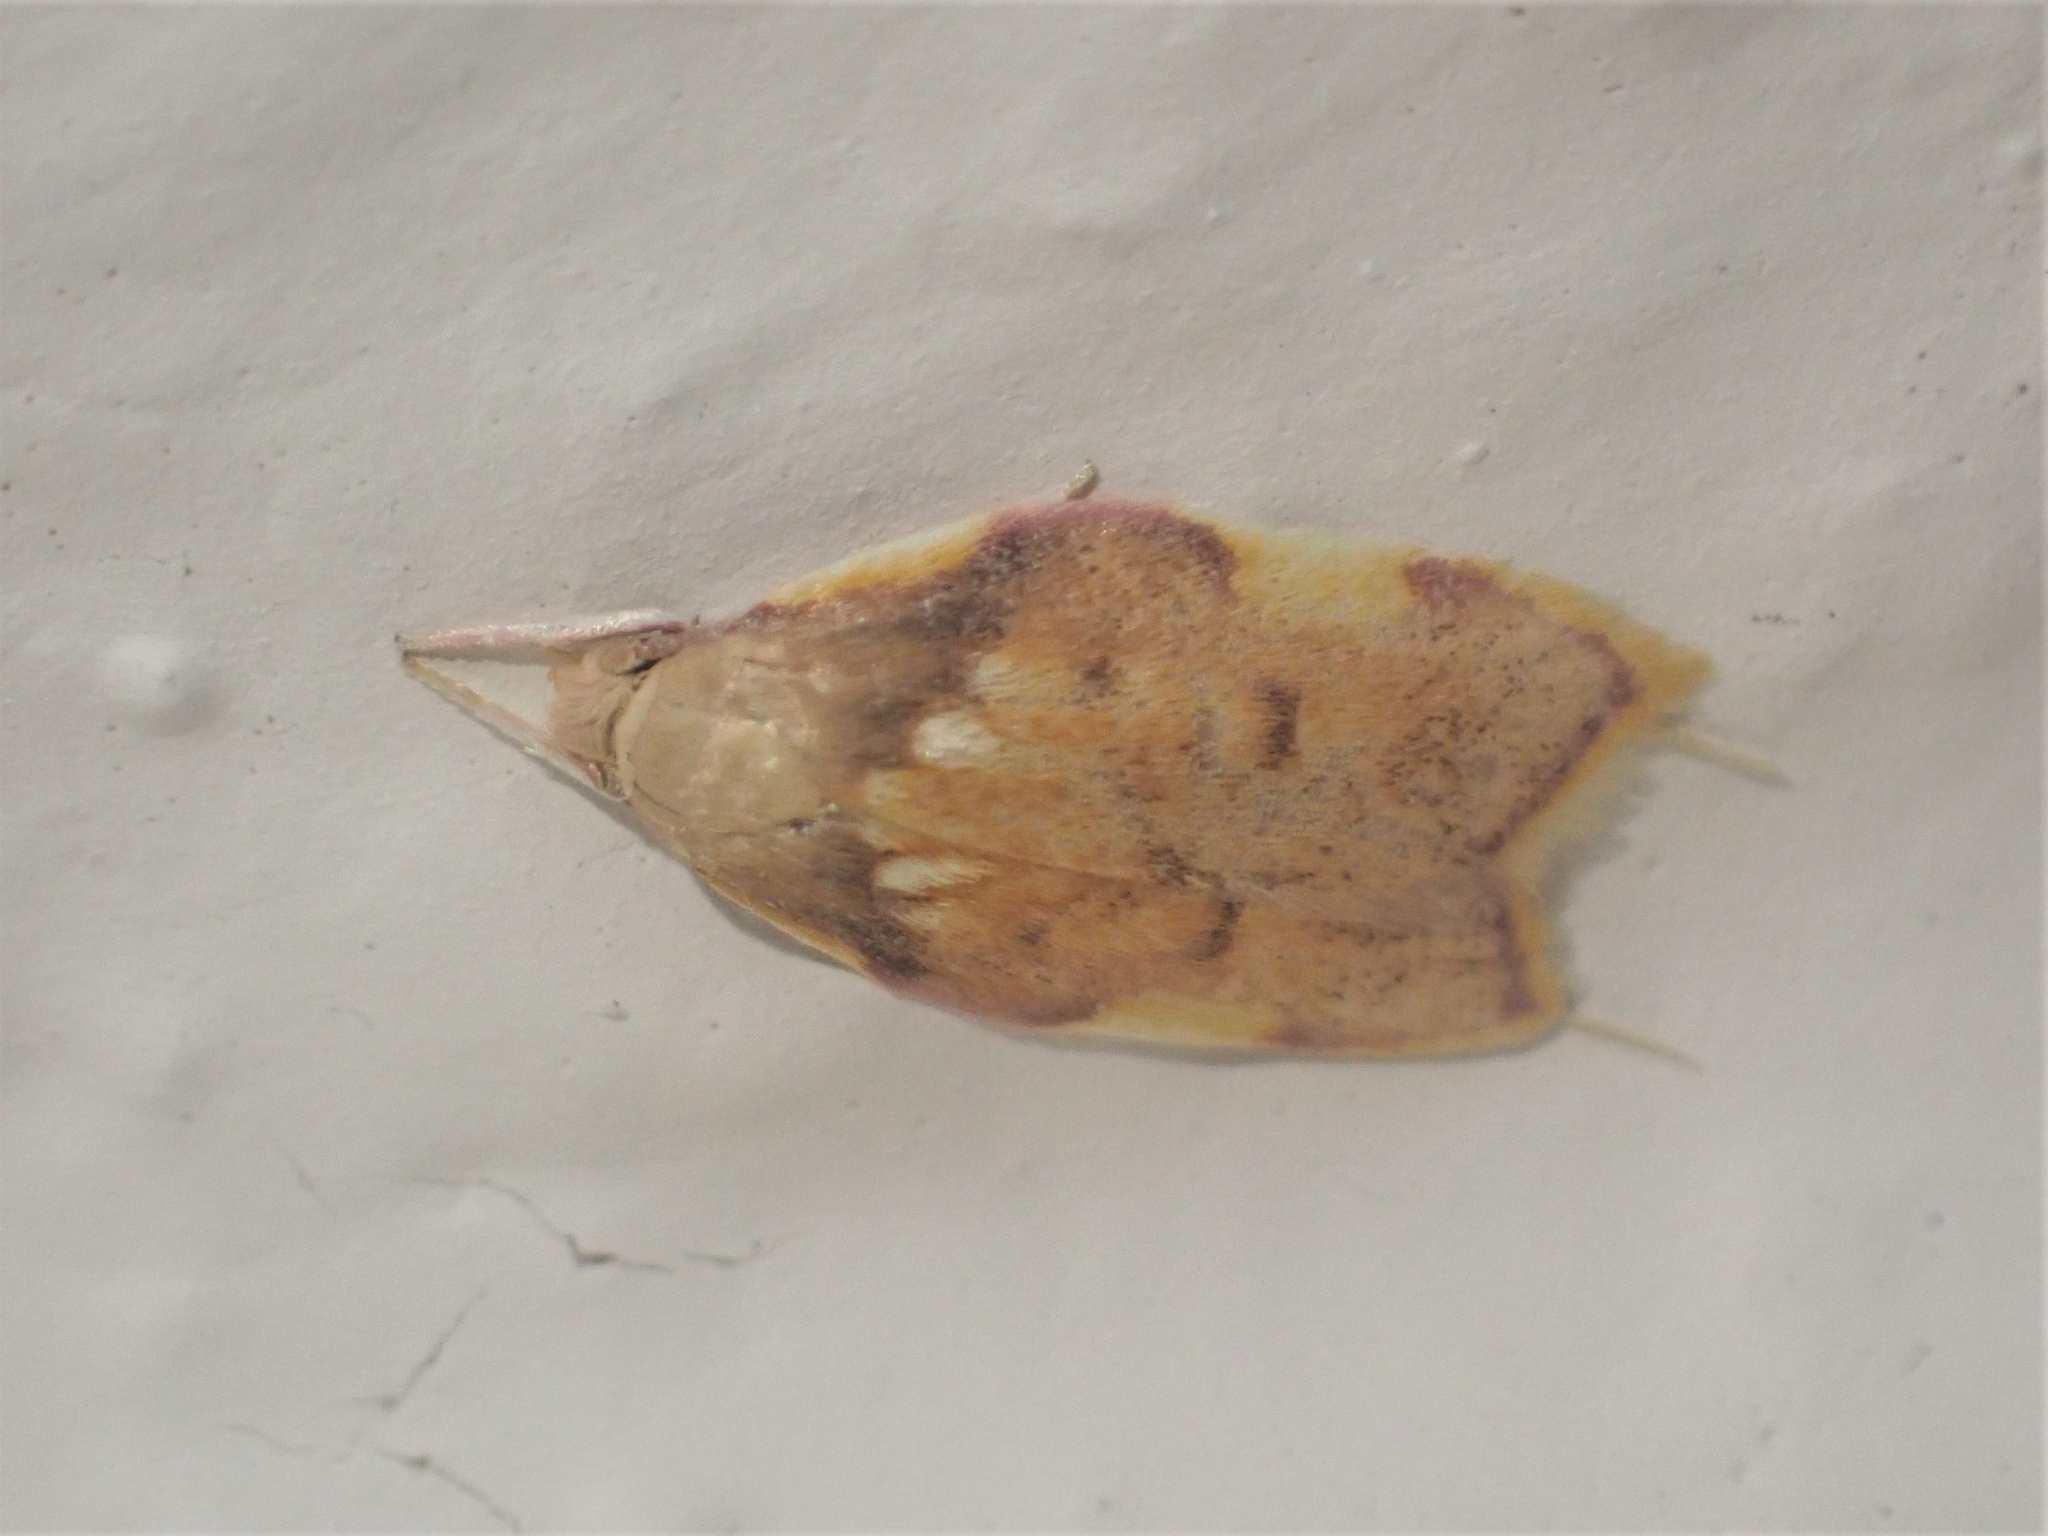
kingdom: Animalia
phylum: Arthropoda
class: Insecta
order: Lepidoptera
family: Peleopodidae
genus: Carcina
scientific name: Carcina quercana
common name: Moth
